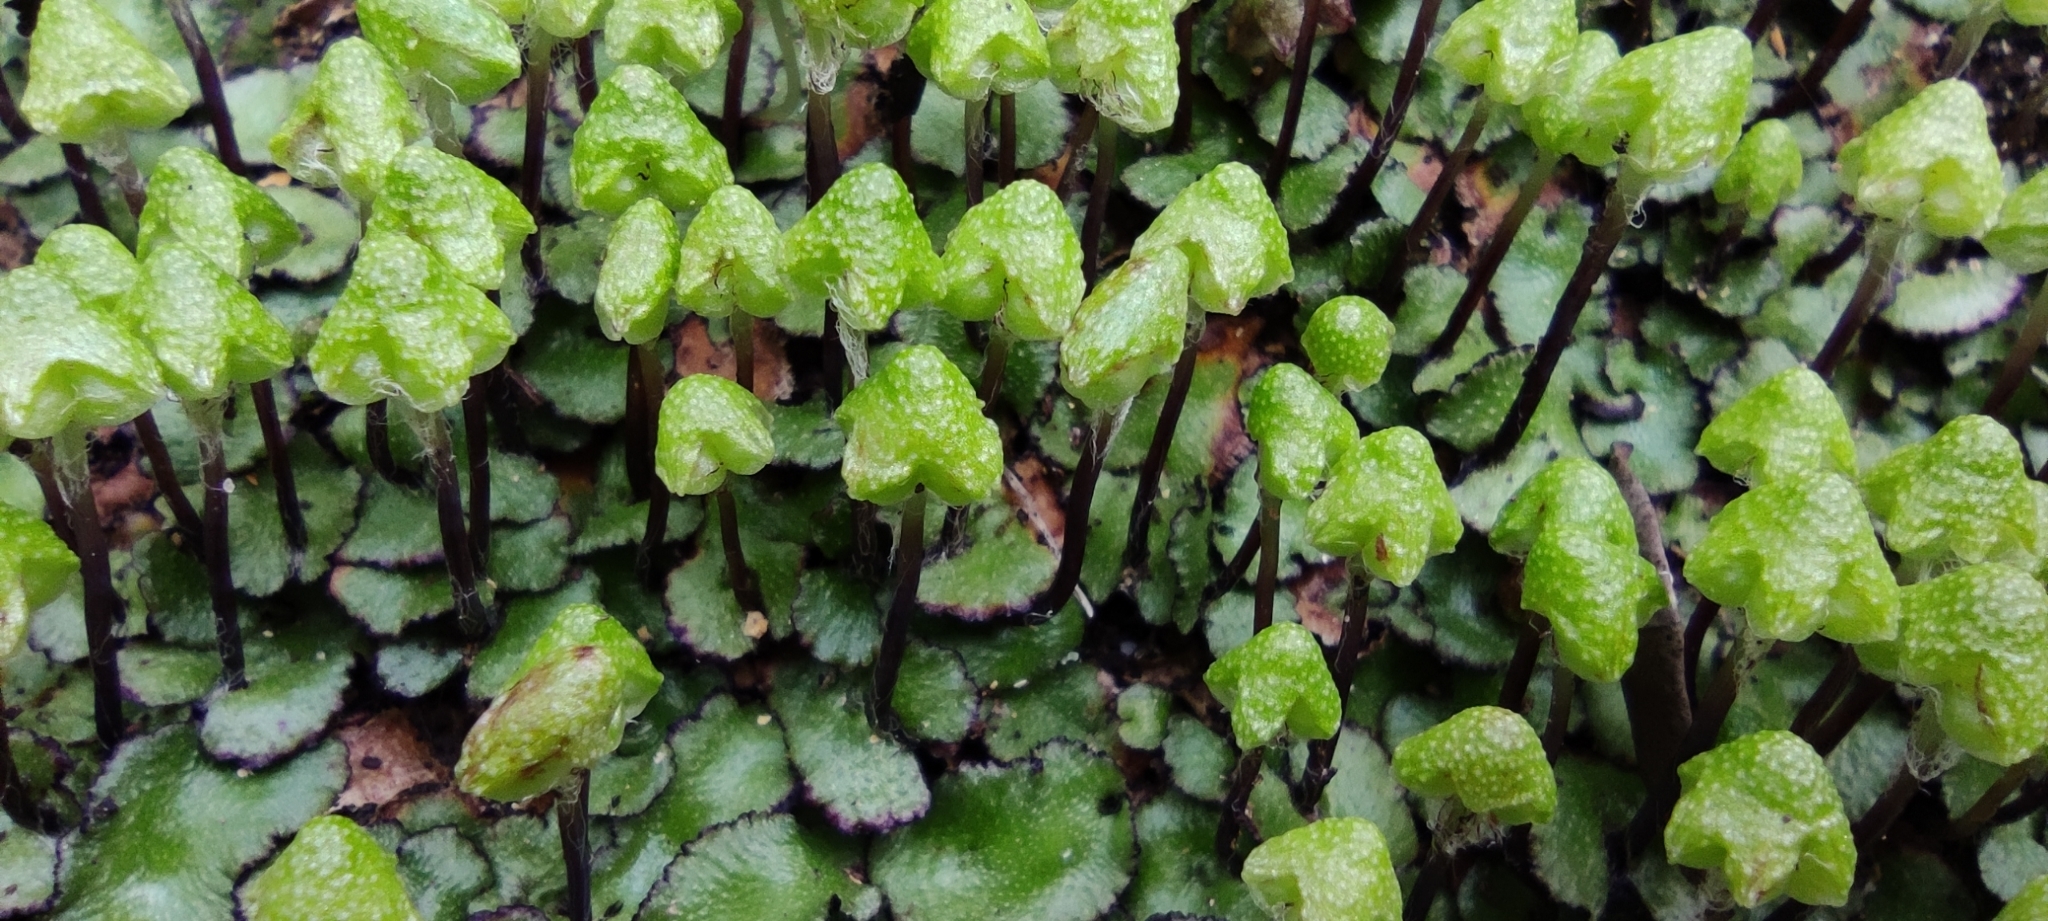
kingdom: Plantae
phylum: Marchantiophyta
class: Marchantiopsida
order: Marchantiales
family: Aytoniaceae
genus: Reboulia
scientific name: Reboulia hemisphaerica
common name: Purple-margined liverwort
